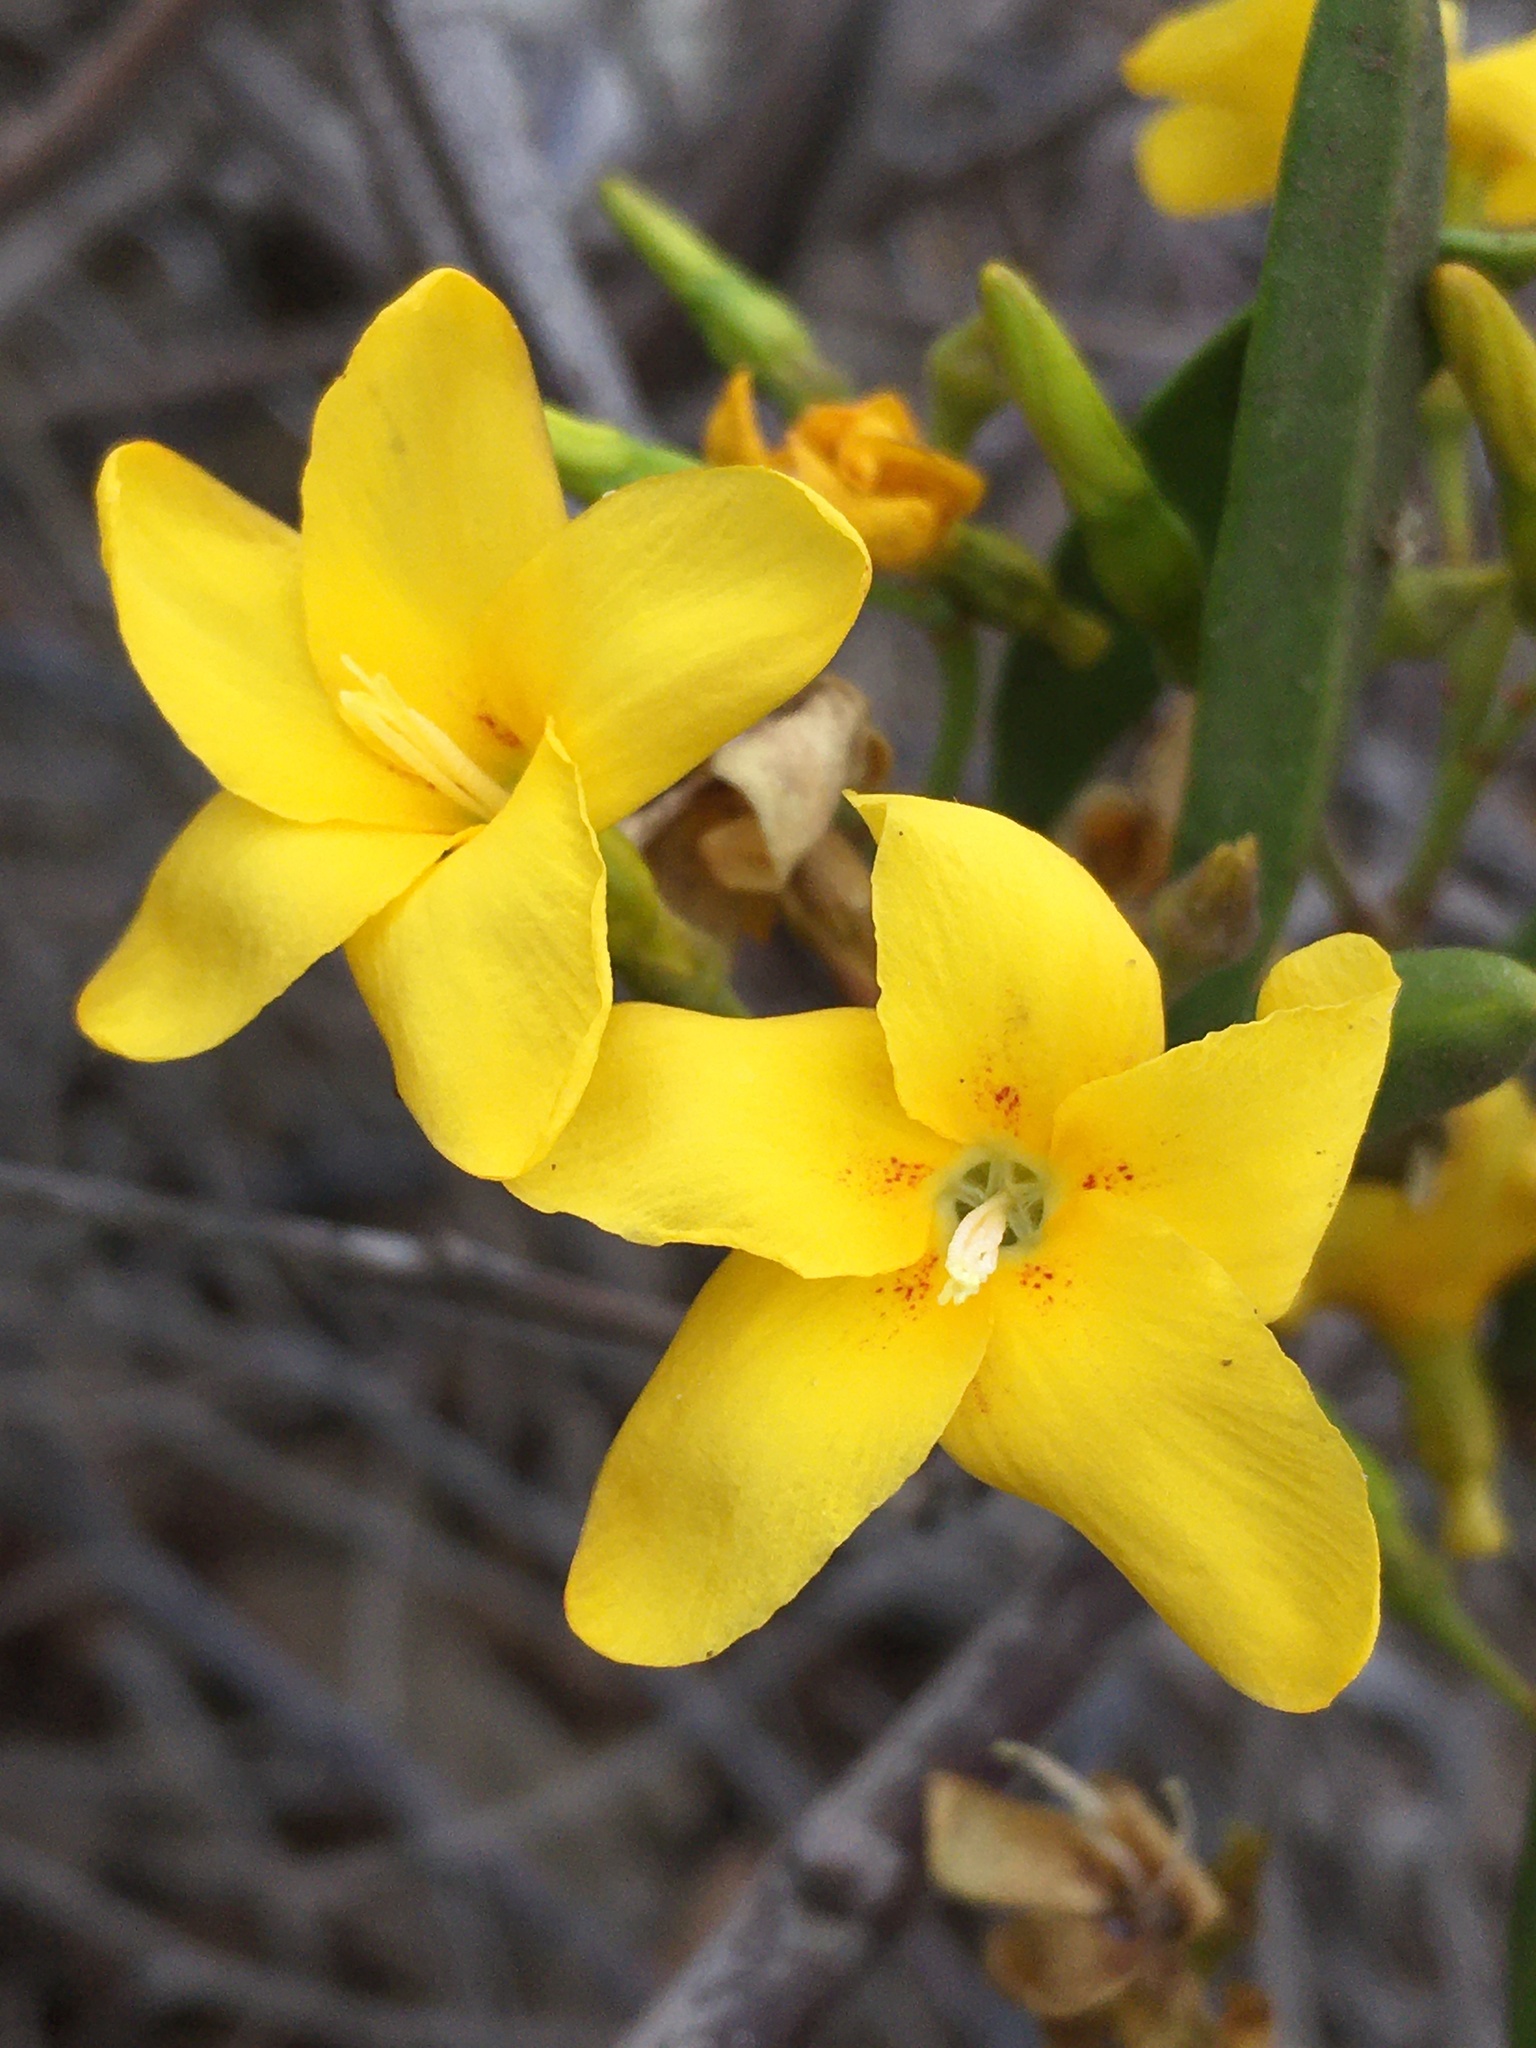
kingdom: Plantae
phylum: Tracheophyta
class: Magnoliopsida
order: Gentianales
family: Apocynaceae
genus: Skytanthus
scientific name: Skytanthus acutus
